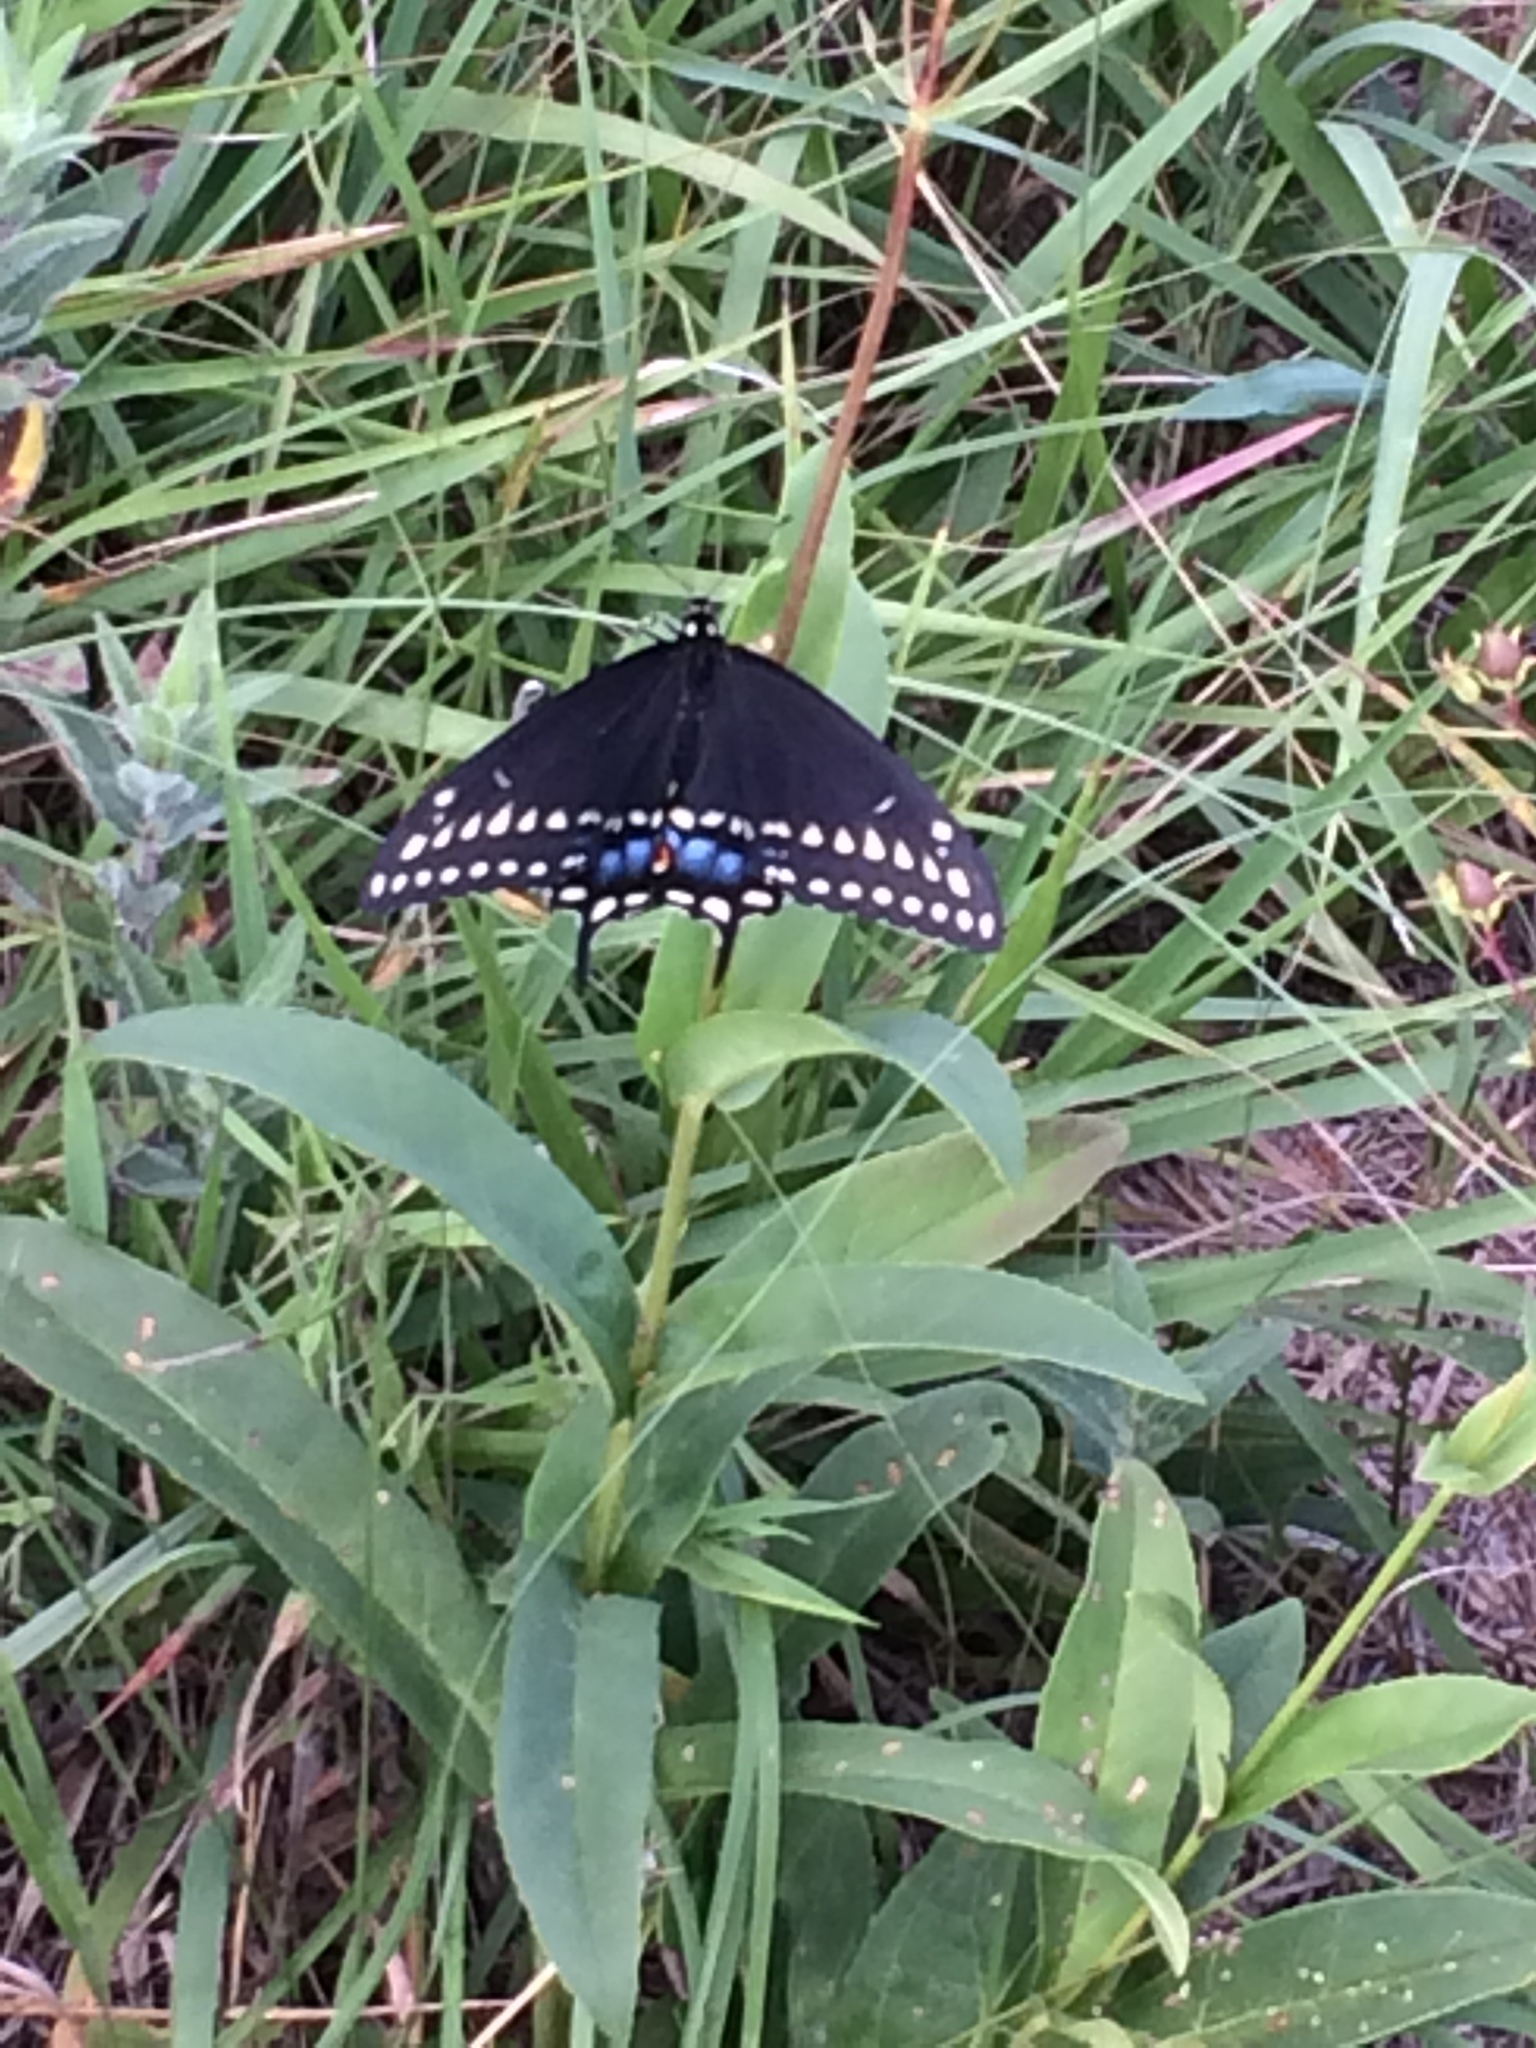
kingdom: Animalia
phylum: Arthropoda
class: Insecta
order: Lepidoptera
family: Papilionidae
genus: Papilio
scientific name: Papilio polyxenes
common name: Black swallowtail
